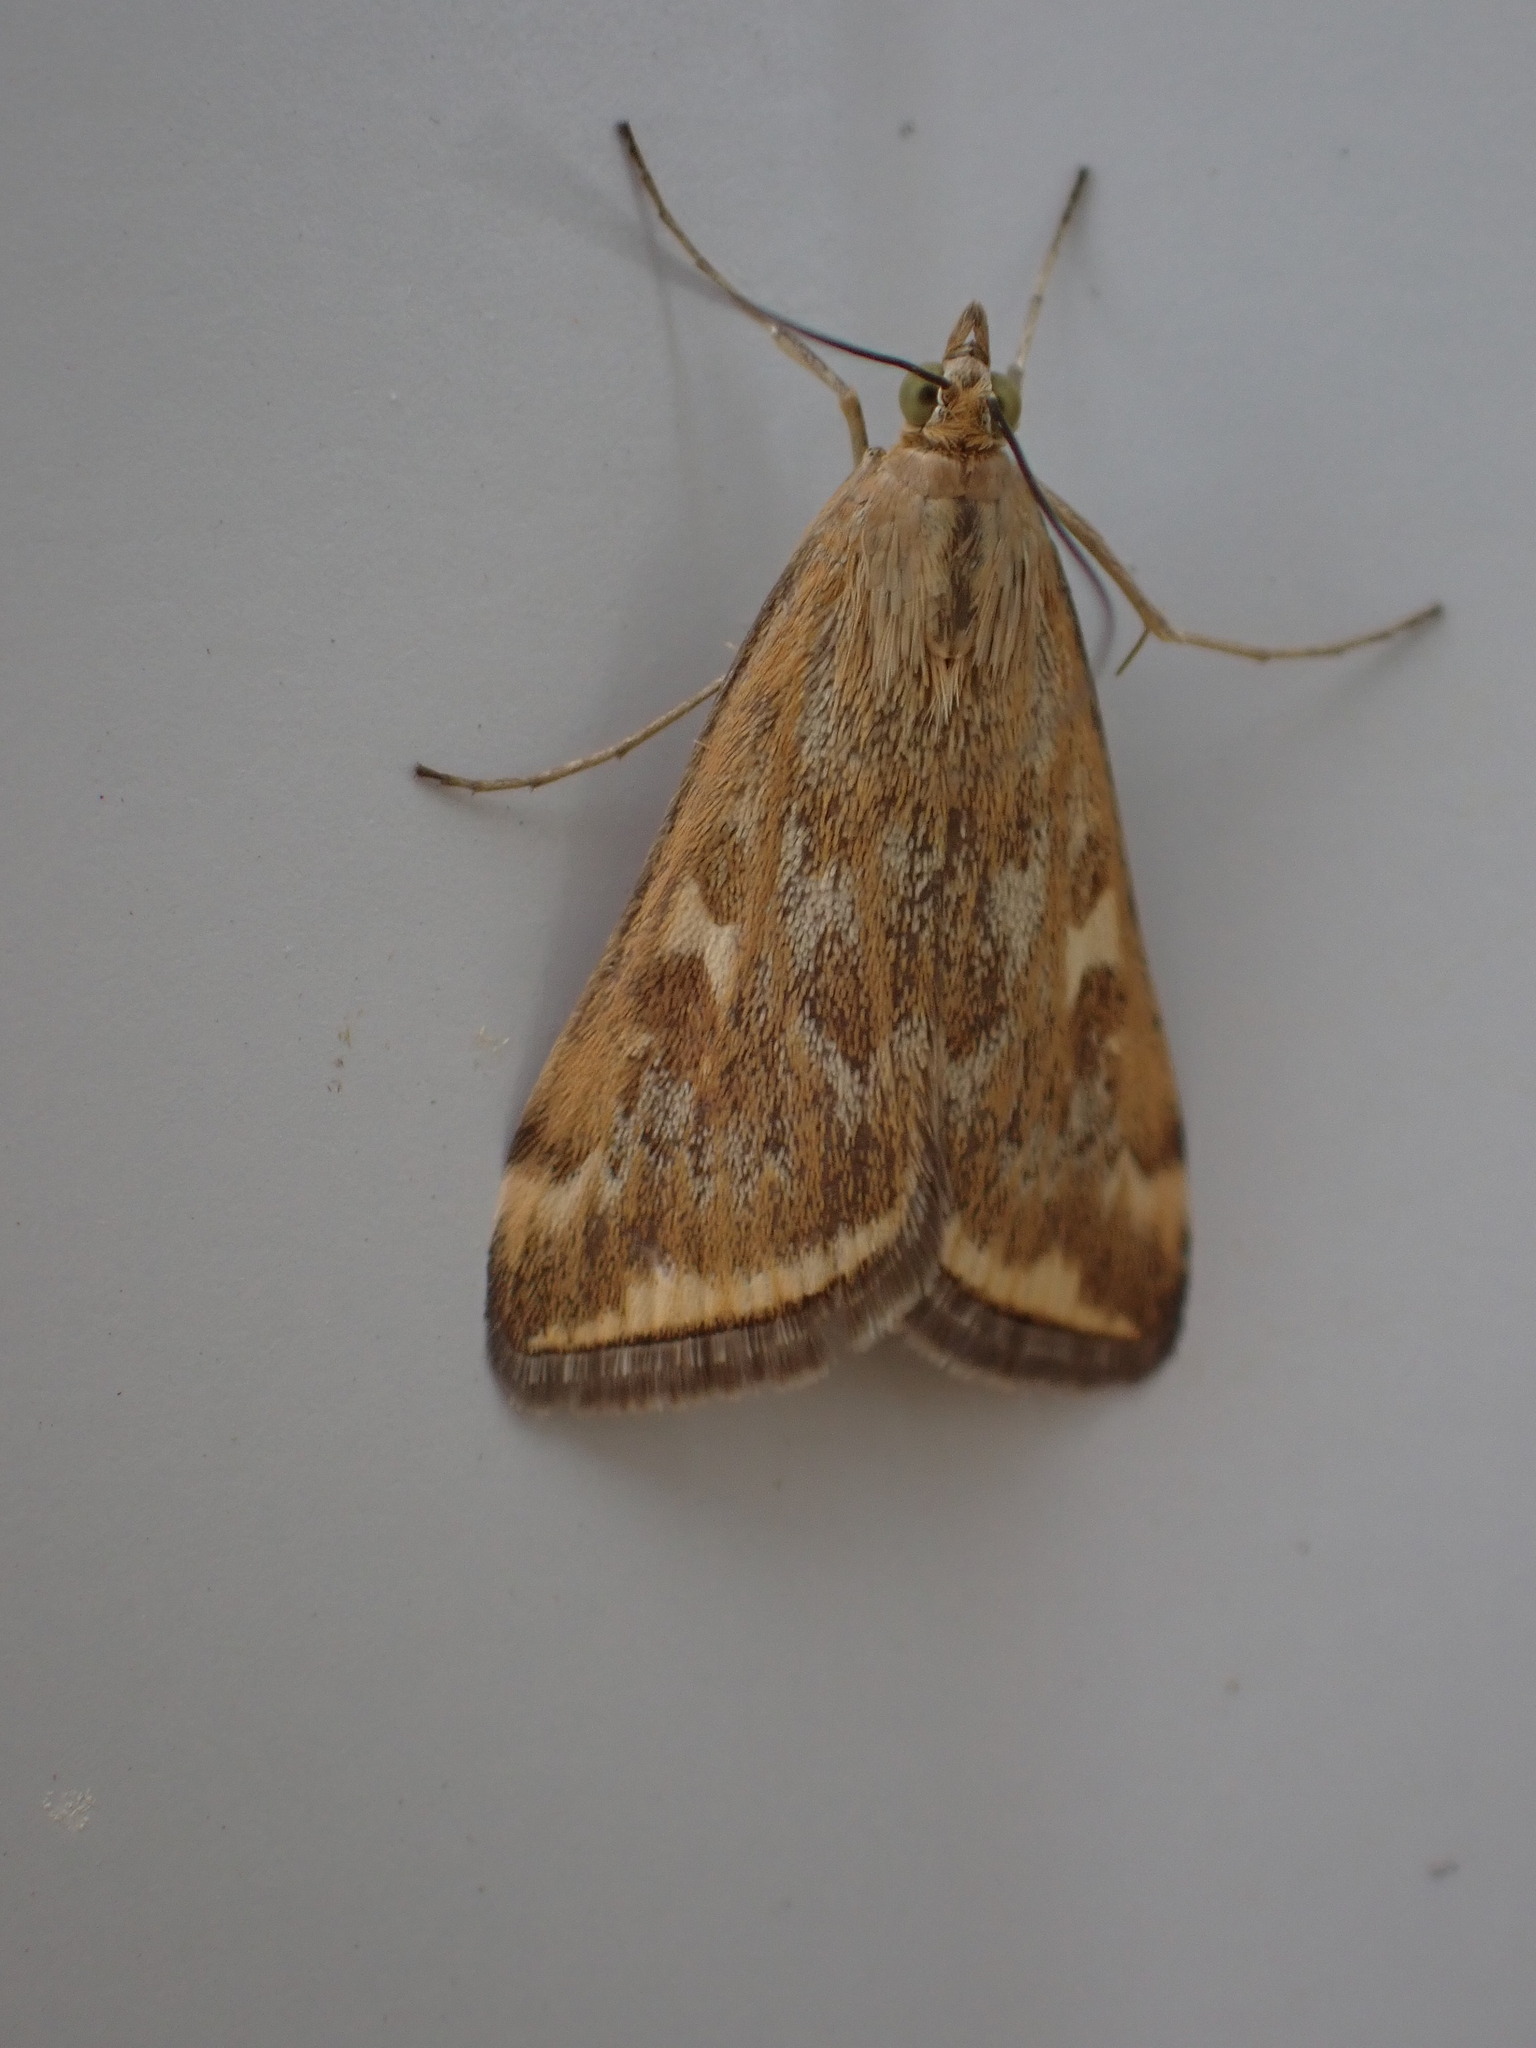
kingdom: Animalia
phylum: Arthropoda
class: Insecta
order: Lepidoptera
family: Crambidae
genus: Loxostege
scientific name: Loxostege
